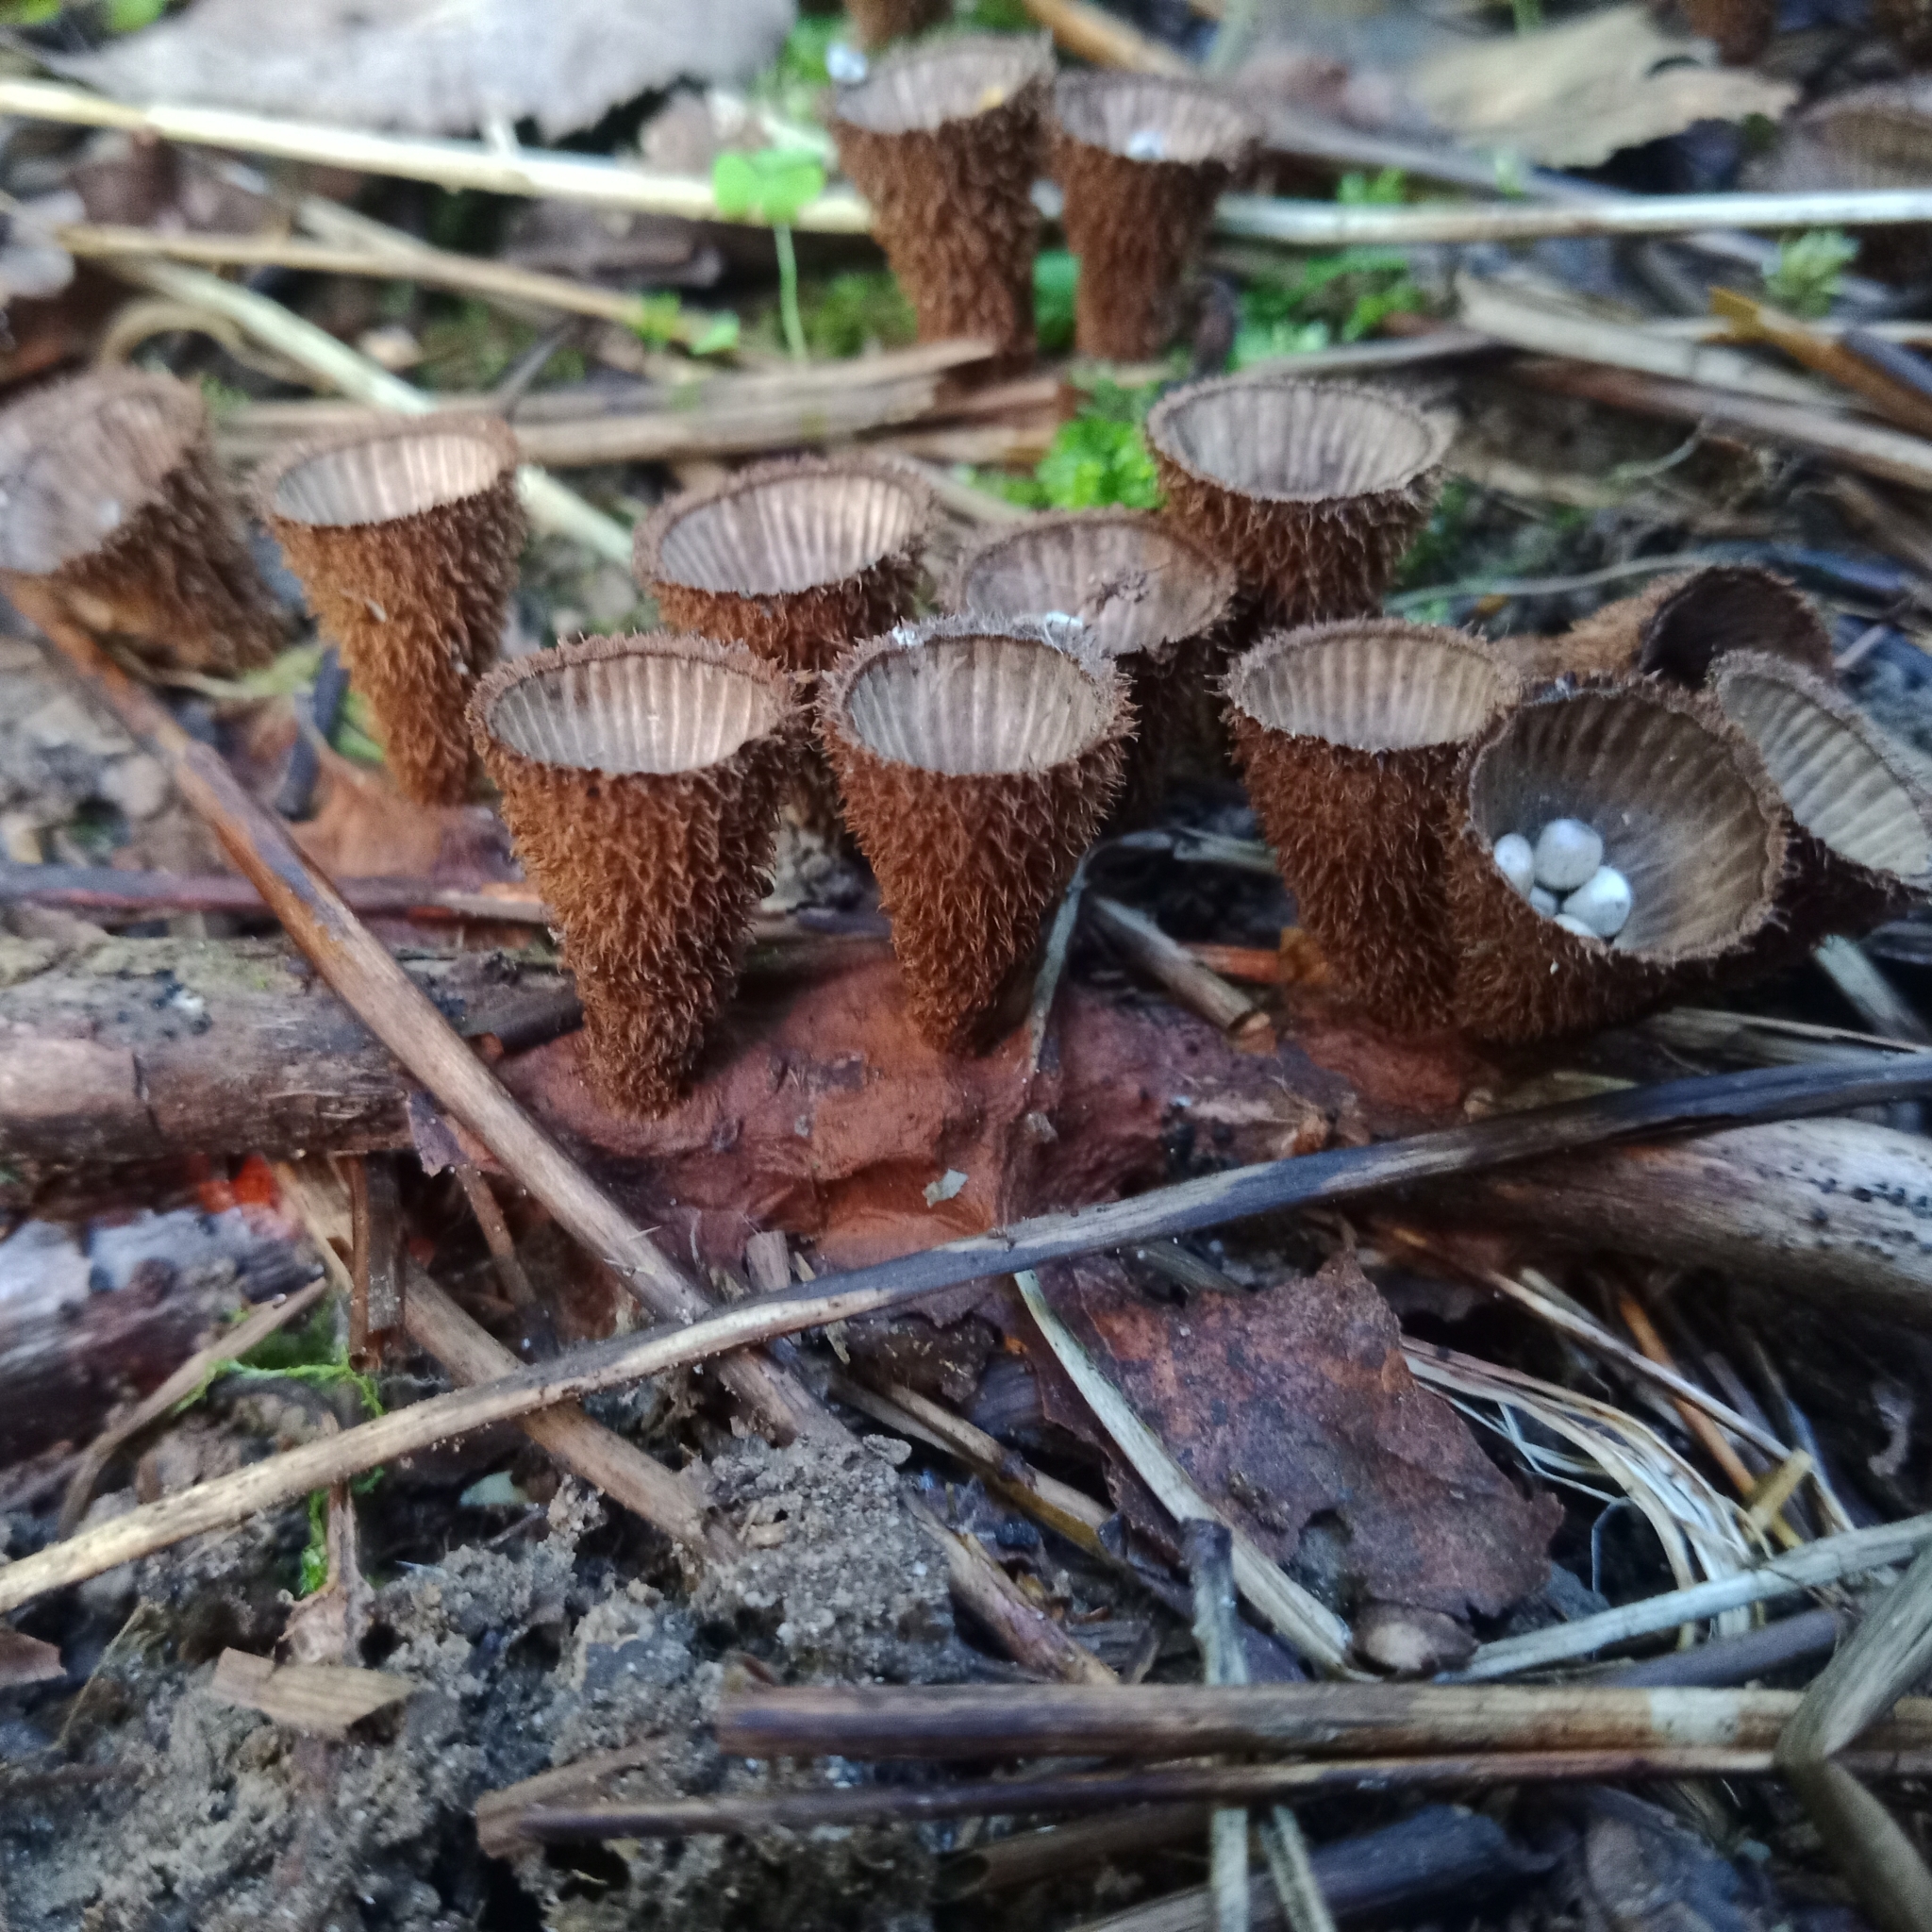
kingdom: Fungi
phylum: Basidiomycota
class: Agaricomycetes
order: Agaricales
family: Agaricaceae
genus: Cyathus
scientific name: Cyathus striatus
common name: Fluted bird's nest
